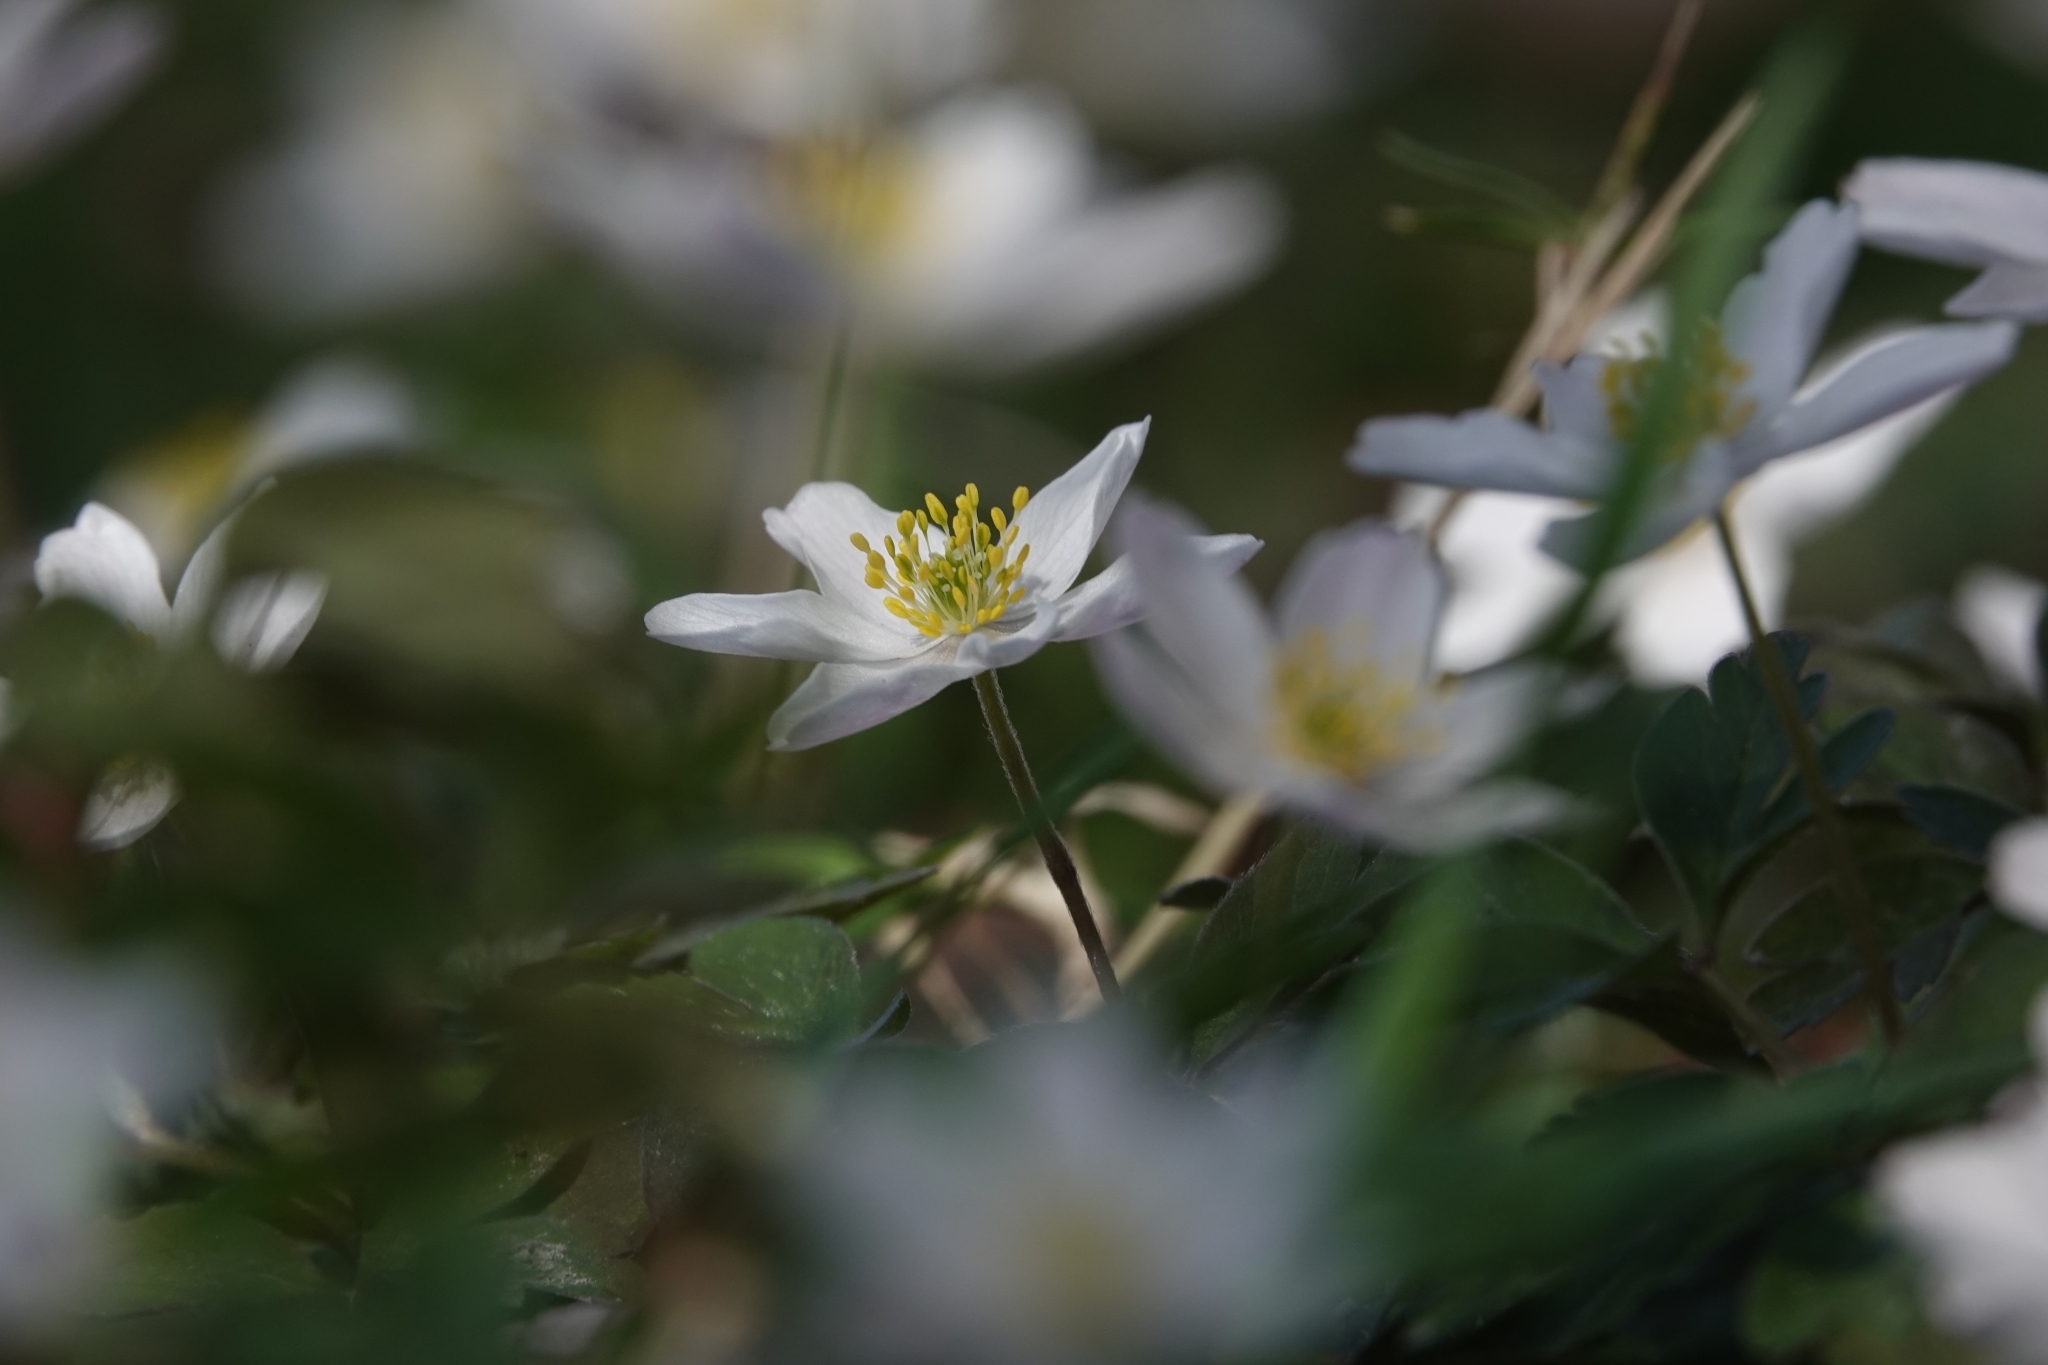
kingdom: Plantae
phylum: Tracheophyta
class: Magnoliopsida
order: Ranunculales
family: Ranunculaceae
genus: Anemone
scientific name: Anemone nemorosa
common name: Wood anemone
